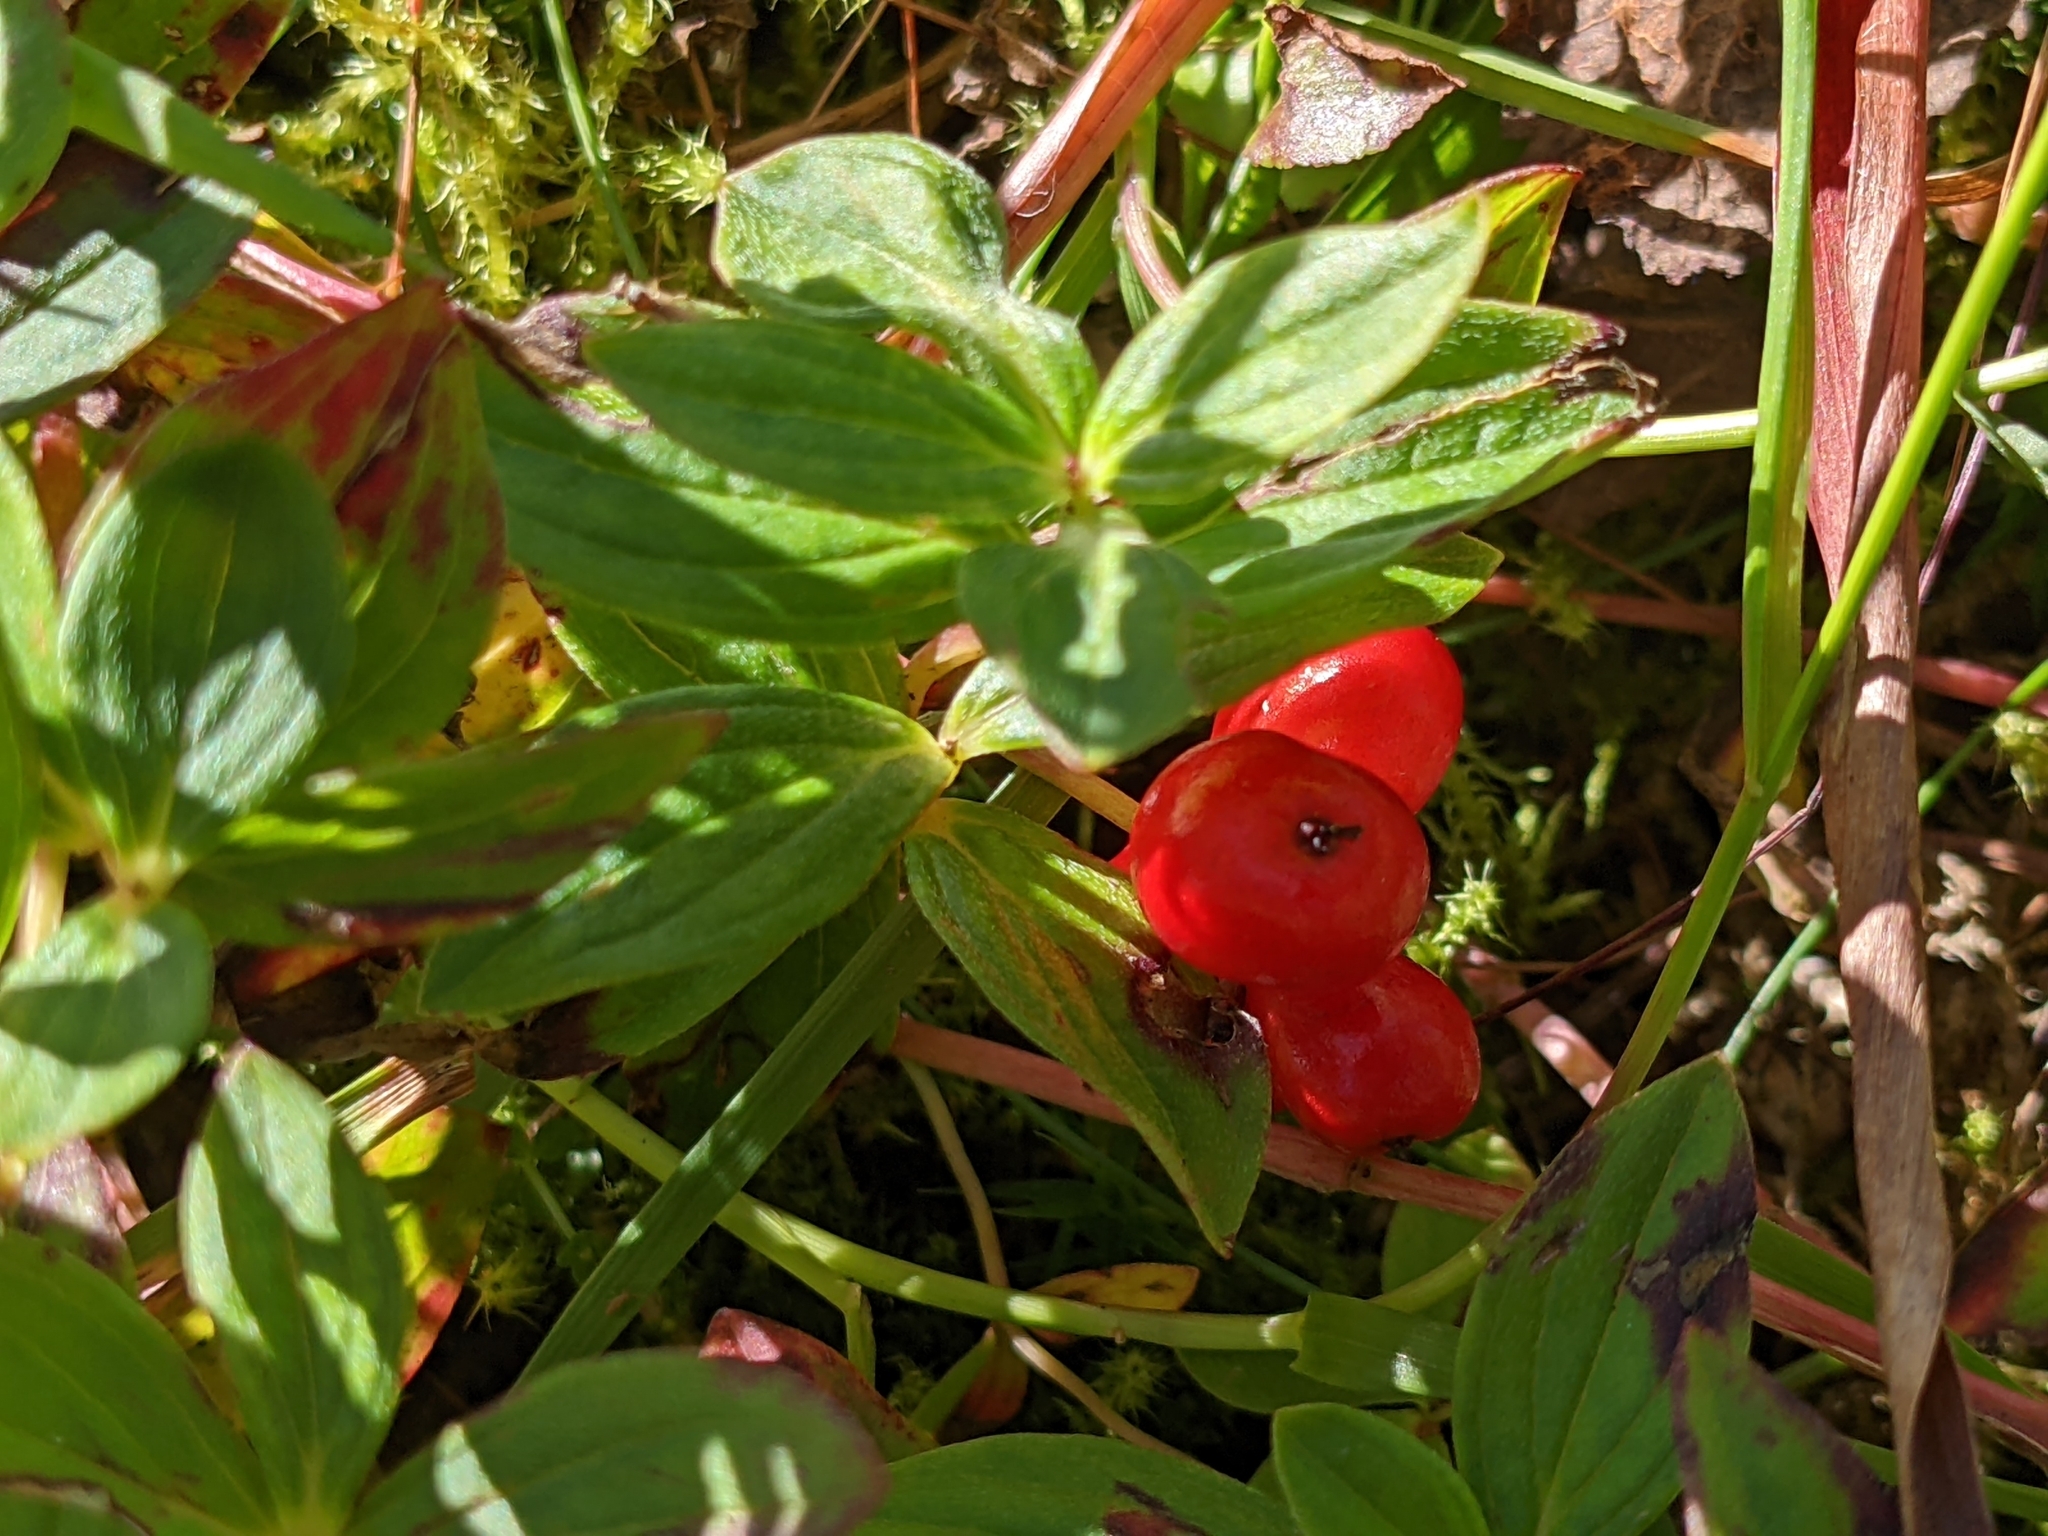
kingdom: Plantae
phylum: Tracheophyta
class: Magnoliopsida
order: Cornales
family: Cornaceae
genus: Cornus
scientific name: Cornus suecica
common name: Dwarf cornel
